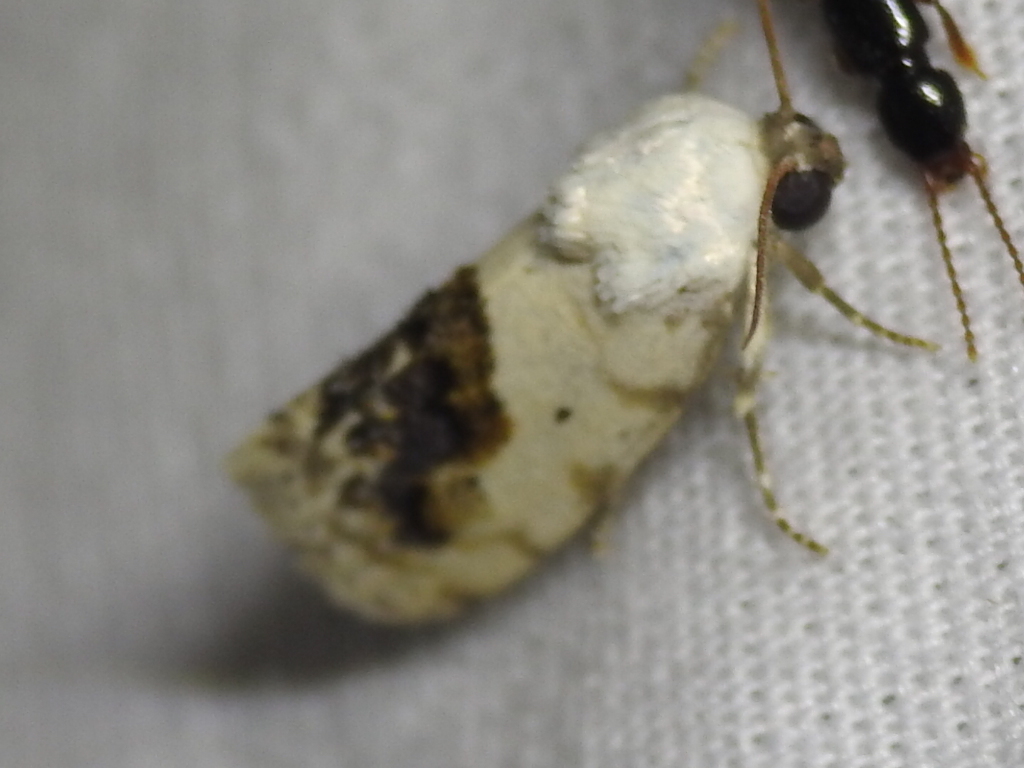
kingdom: Animalia
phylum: Arthropoda
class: Insecta
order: Lepidoptera
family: Noctuidae
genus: Acontia
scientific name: Acontia erastrioides
